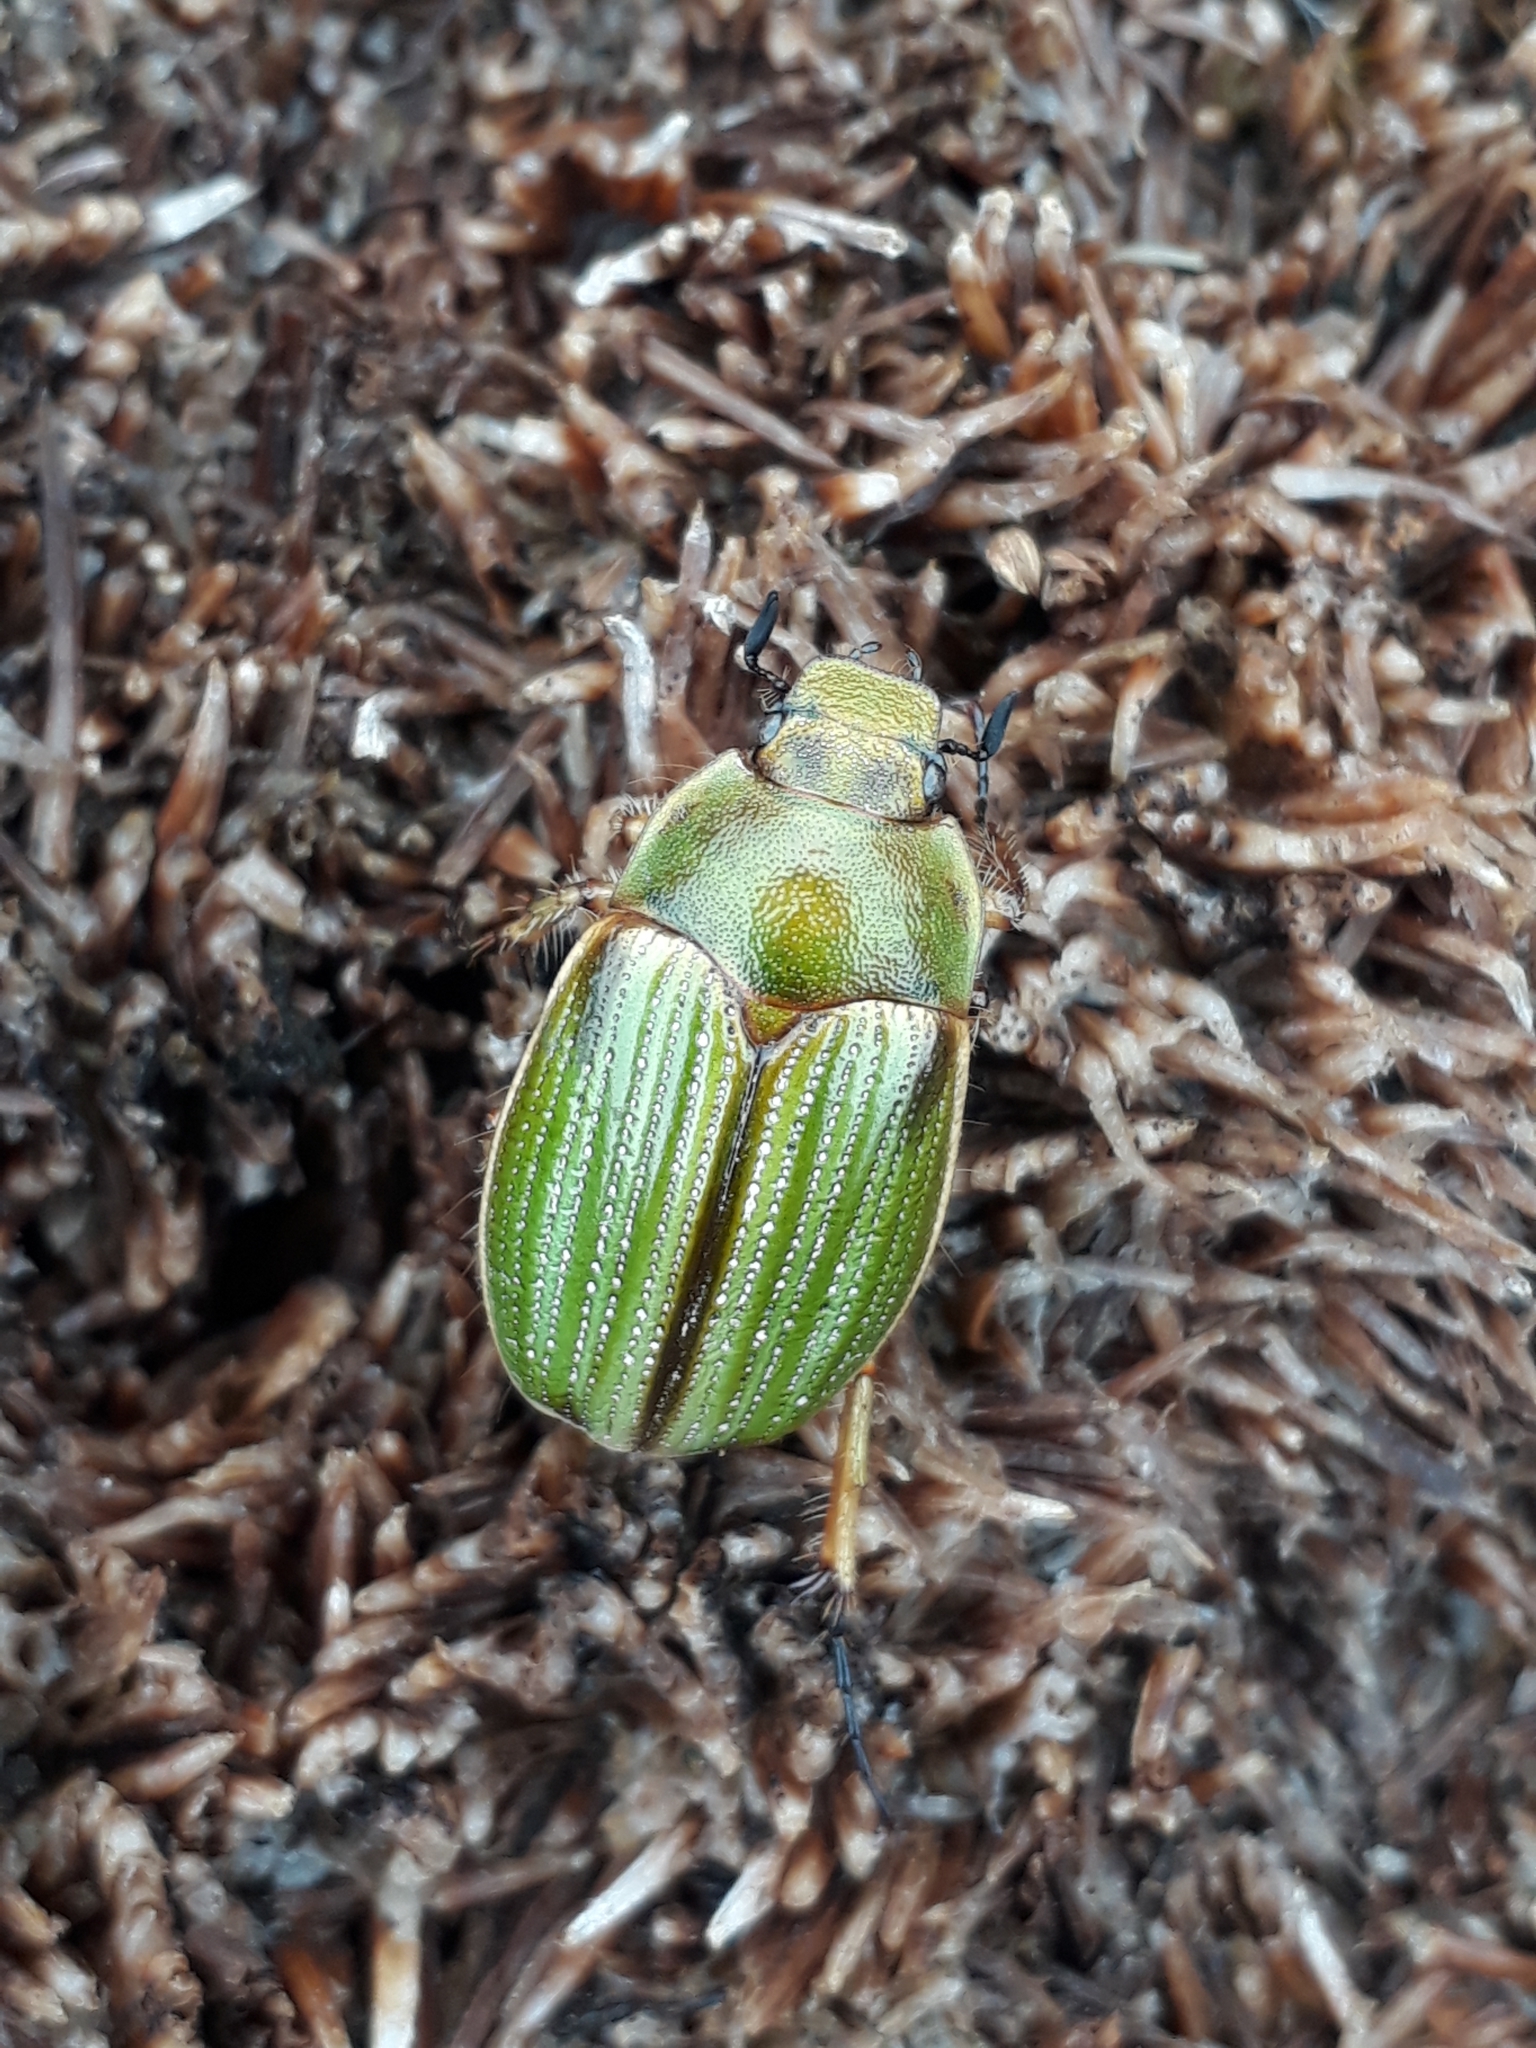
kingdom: Animalia
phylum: Arthropoda
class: Insecta
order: Coleoptera
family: Scarabaeidae
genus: Stethaspis
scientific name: Stethaspis intermediata
